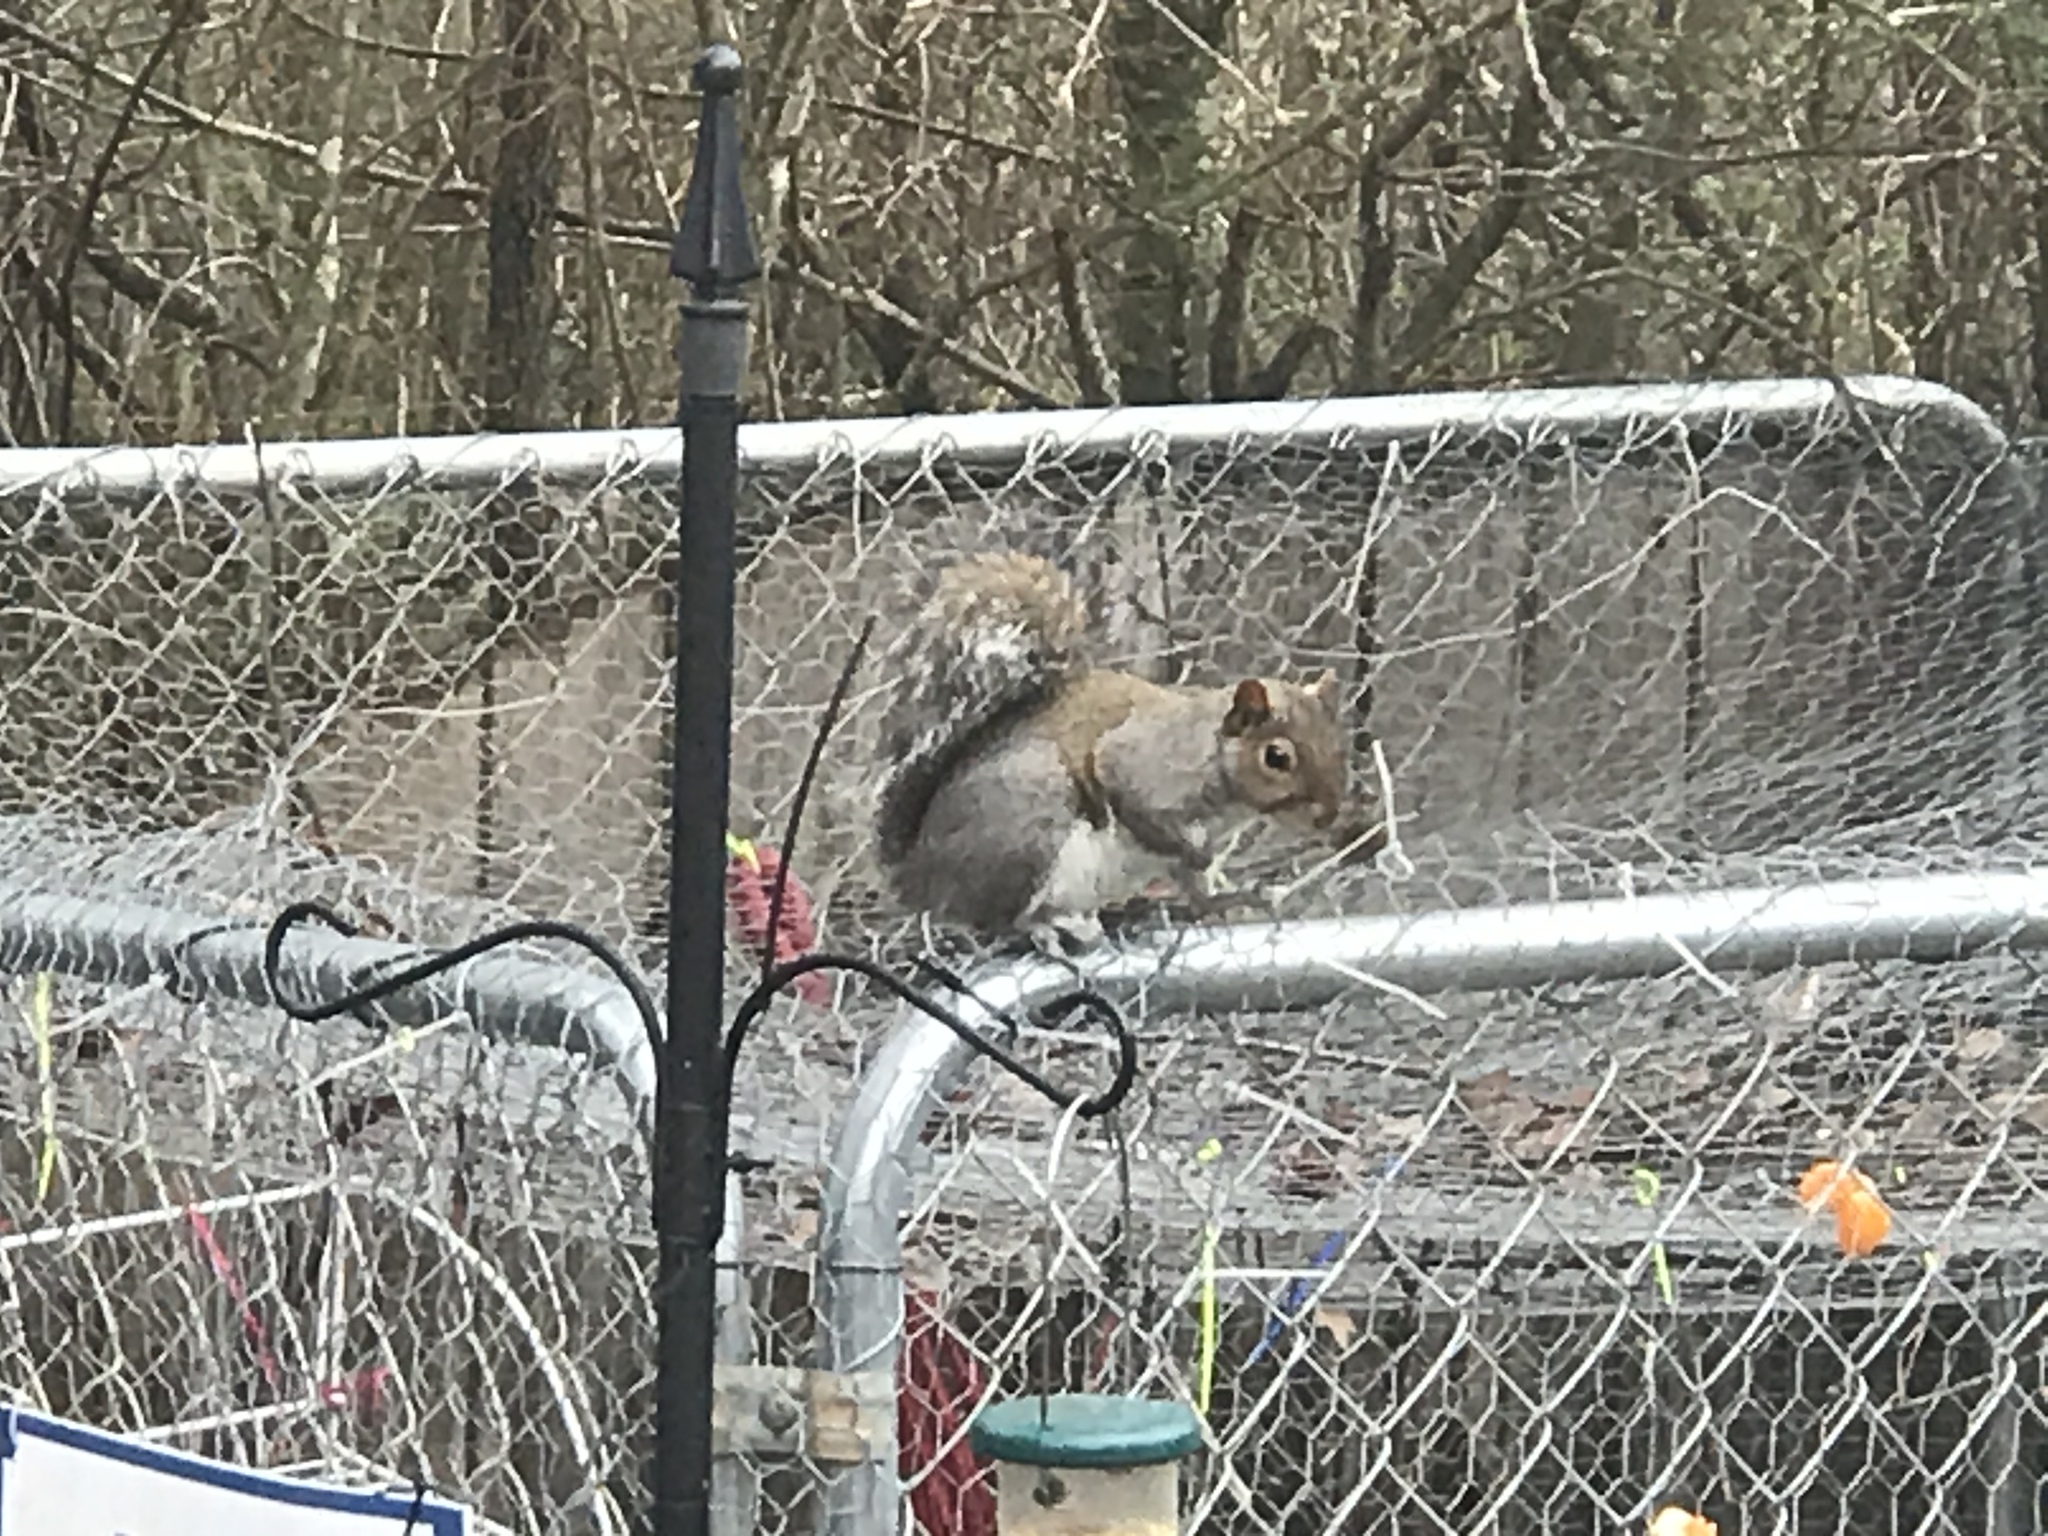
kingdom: Animalia
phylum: Chordata
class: Mammalia
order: Rodentia
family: Sciuridae
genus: Sciurus
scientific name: Sciurus carolinensis
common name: Eastern gray squirrel
